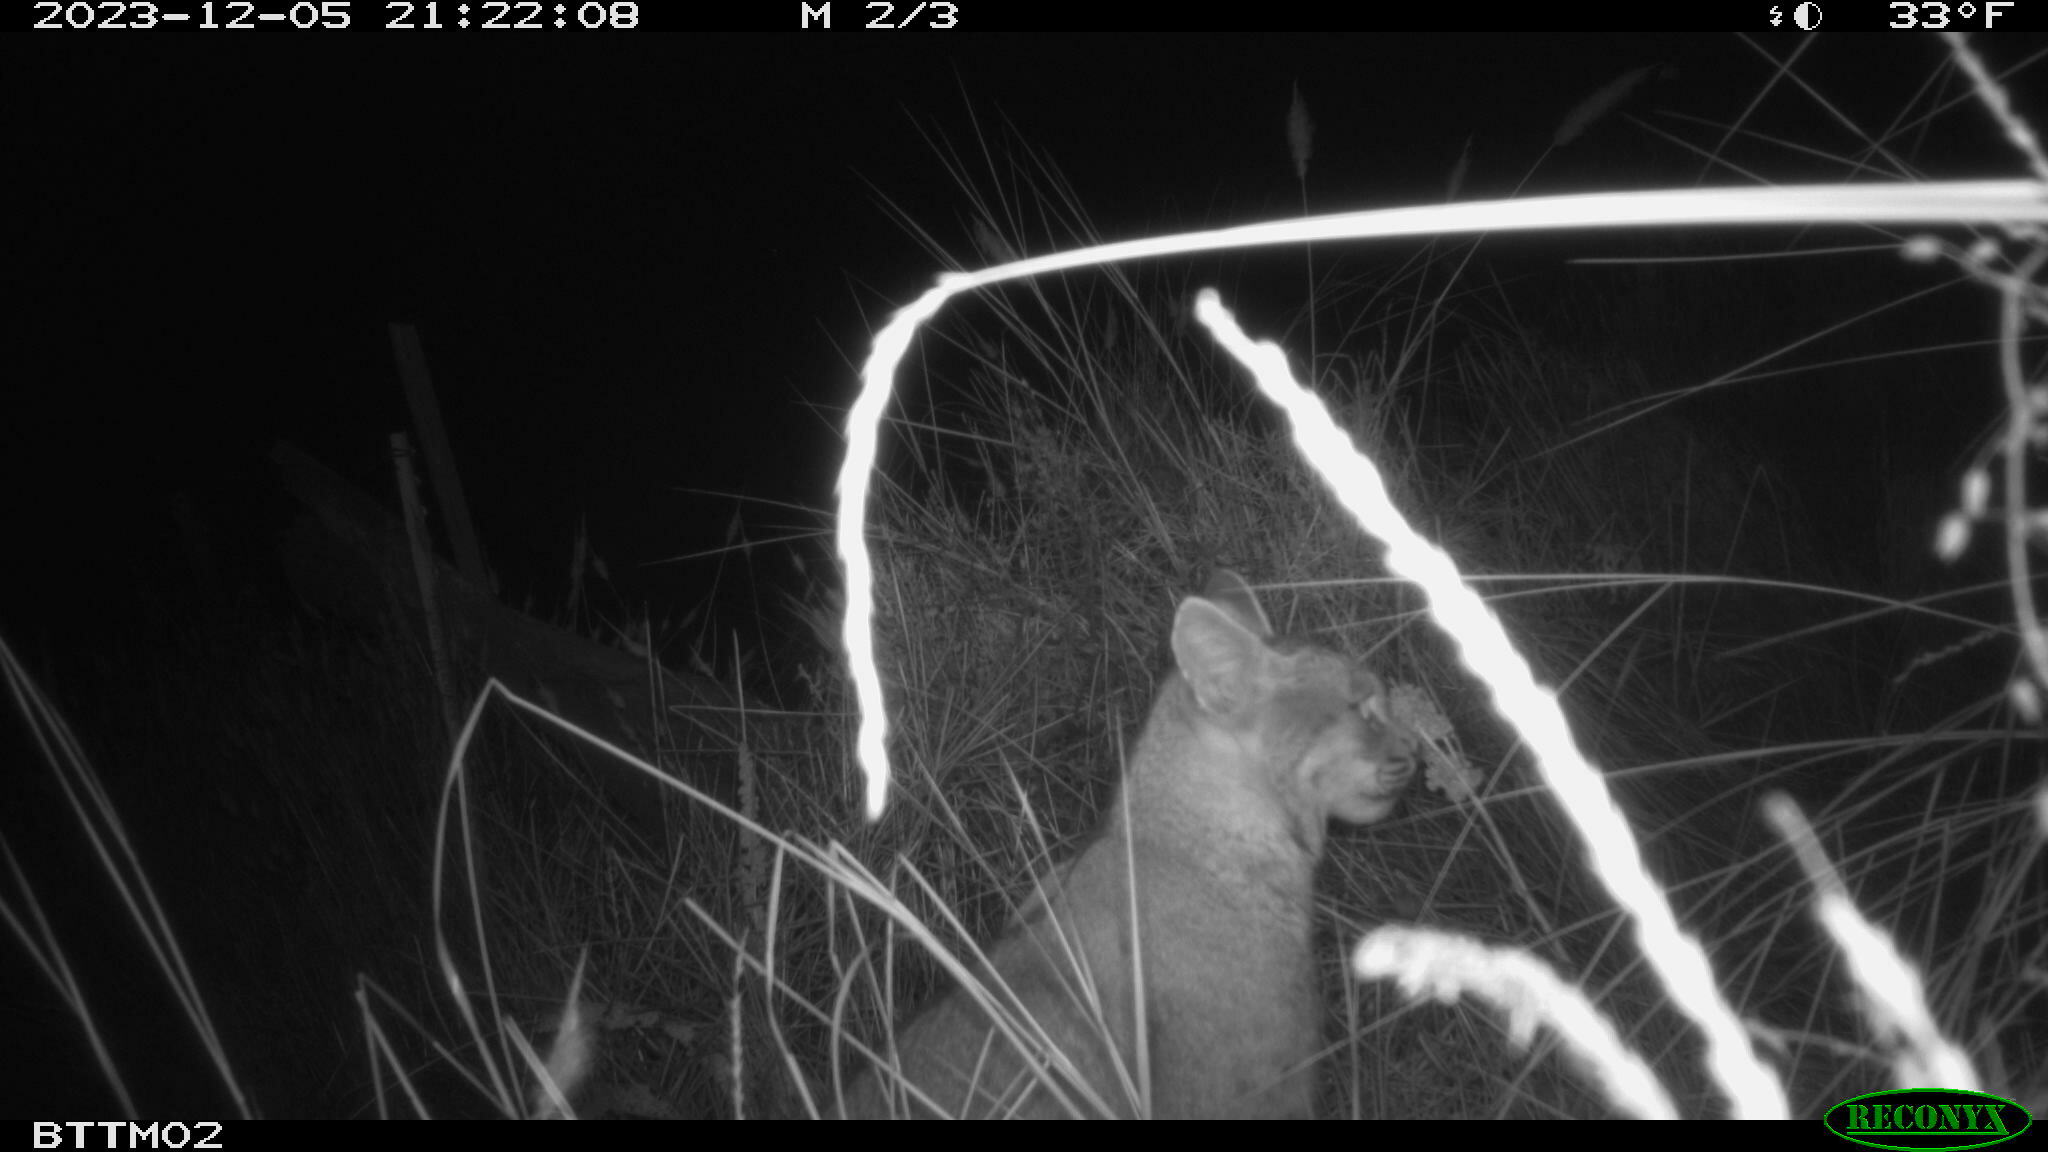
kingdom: Animalia
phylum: Chordata
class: Mammalia
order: Carnivora
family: Felidae
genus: Lynx
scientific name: Lynx rufus
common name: Bobcat
